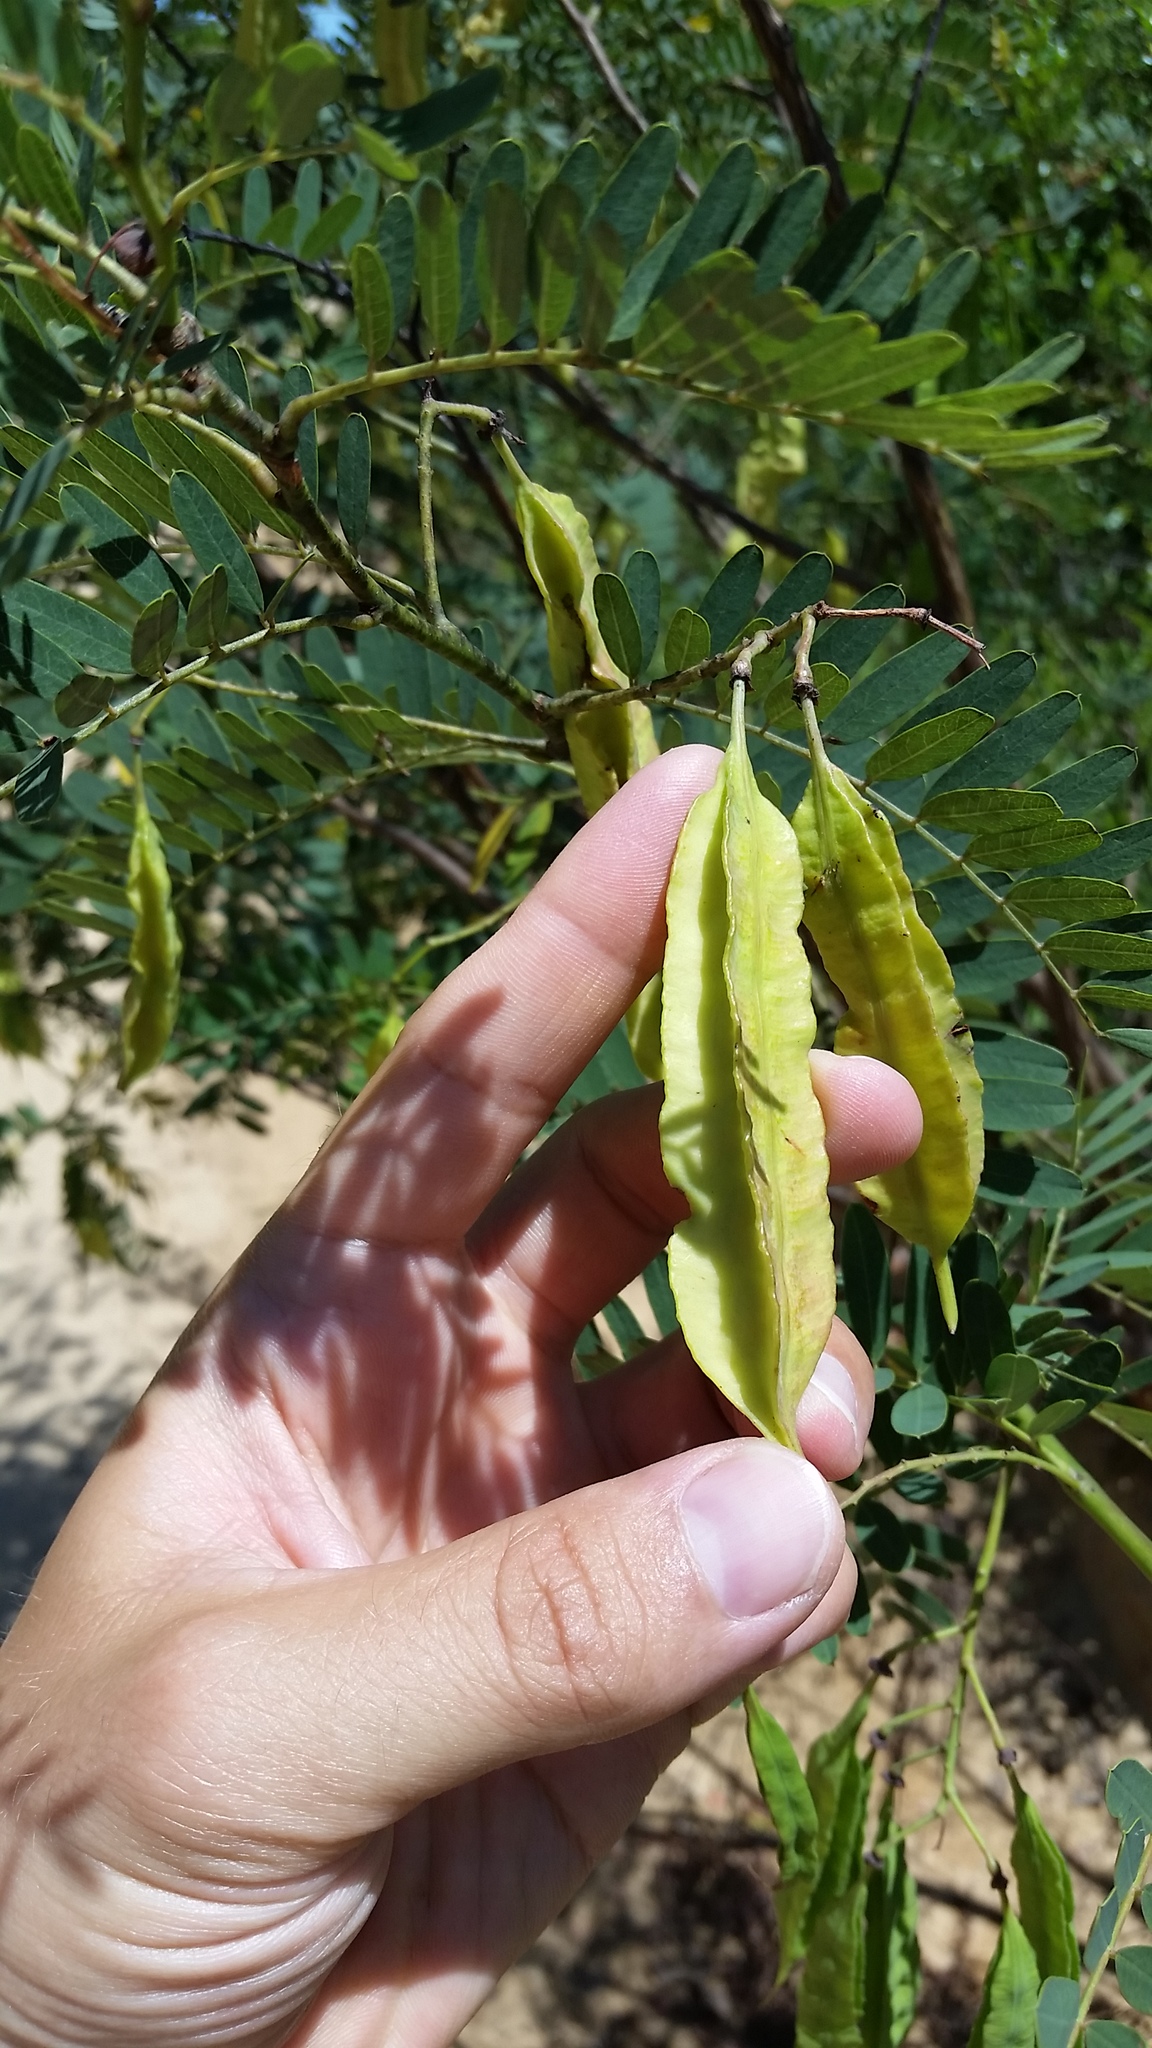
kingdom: Plantae
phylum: Tracheophyta
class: Magnoliopsida
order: Fabales
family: Fabaceae
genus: Sesbania
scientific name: Sesbania punicea
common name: Rattlebox
